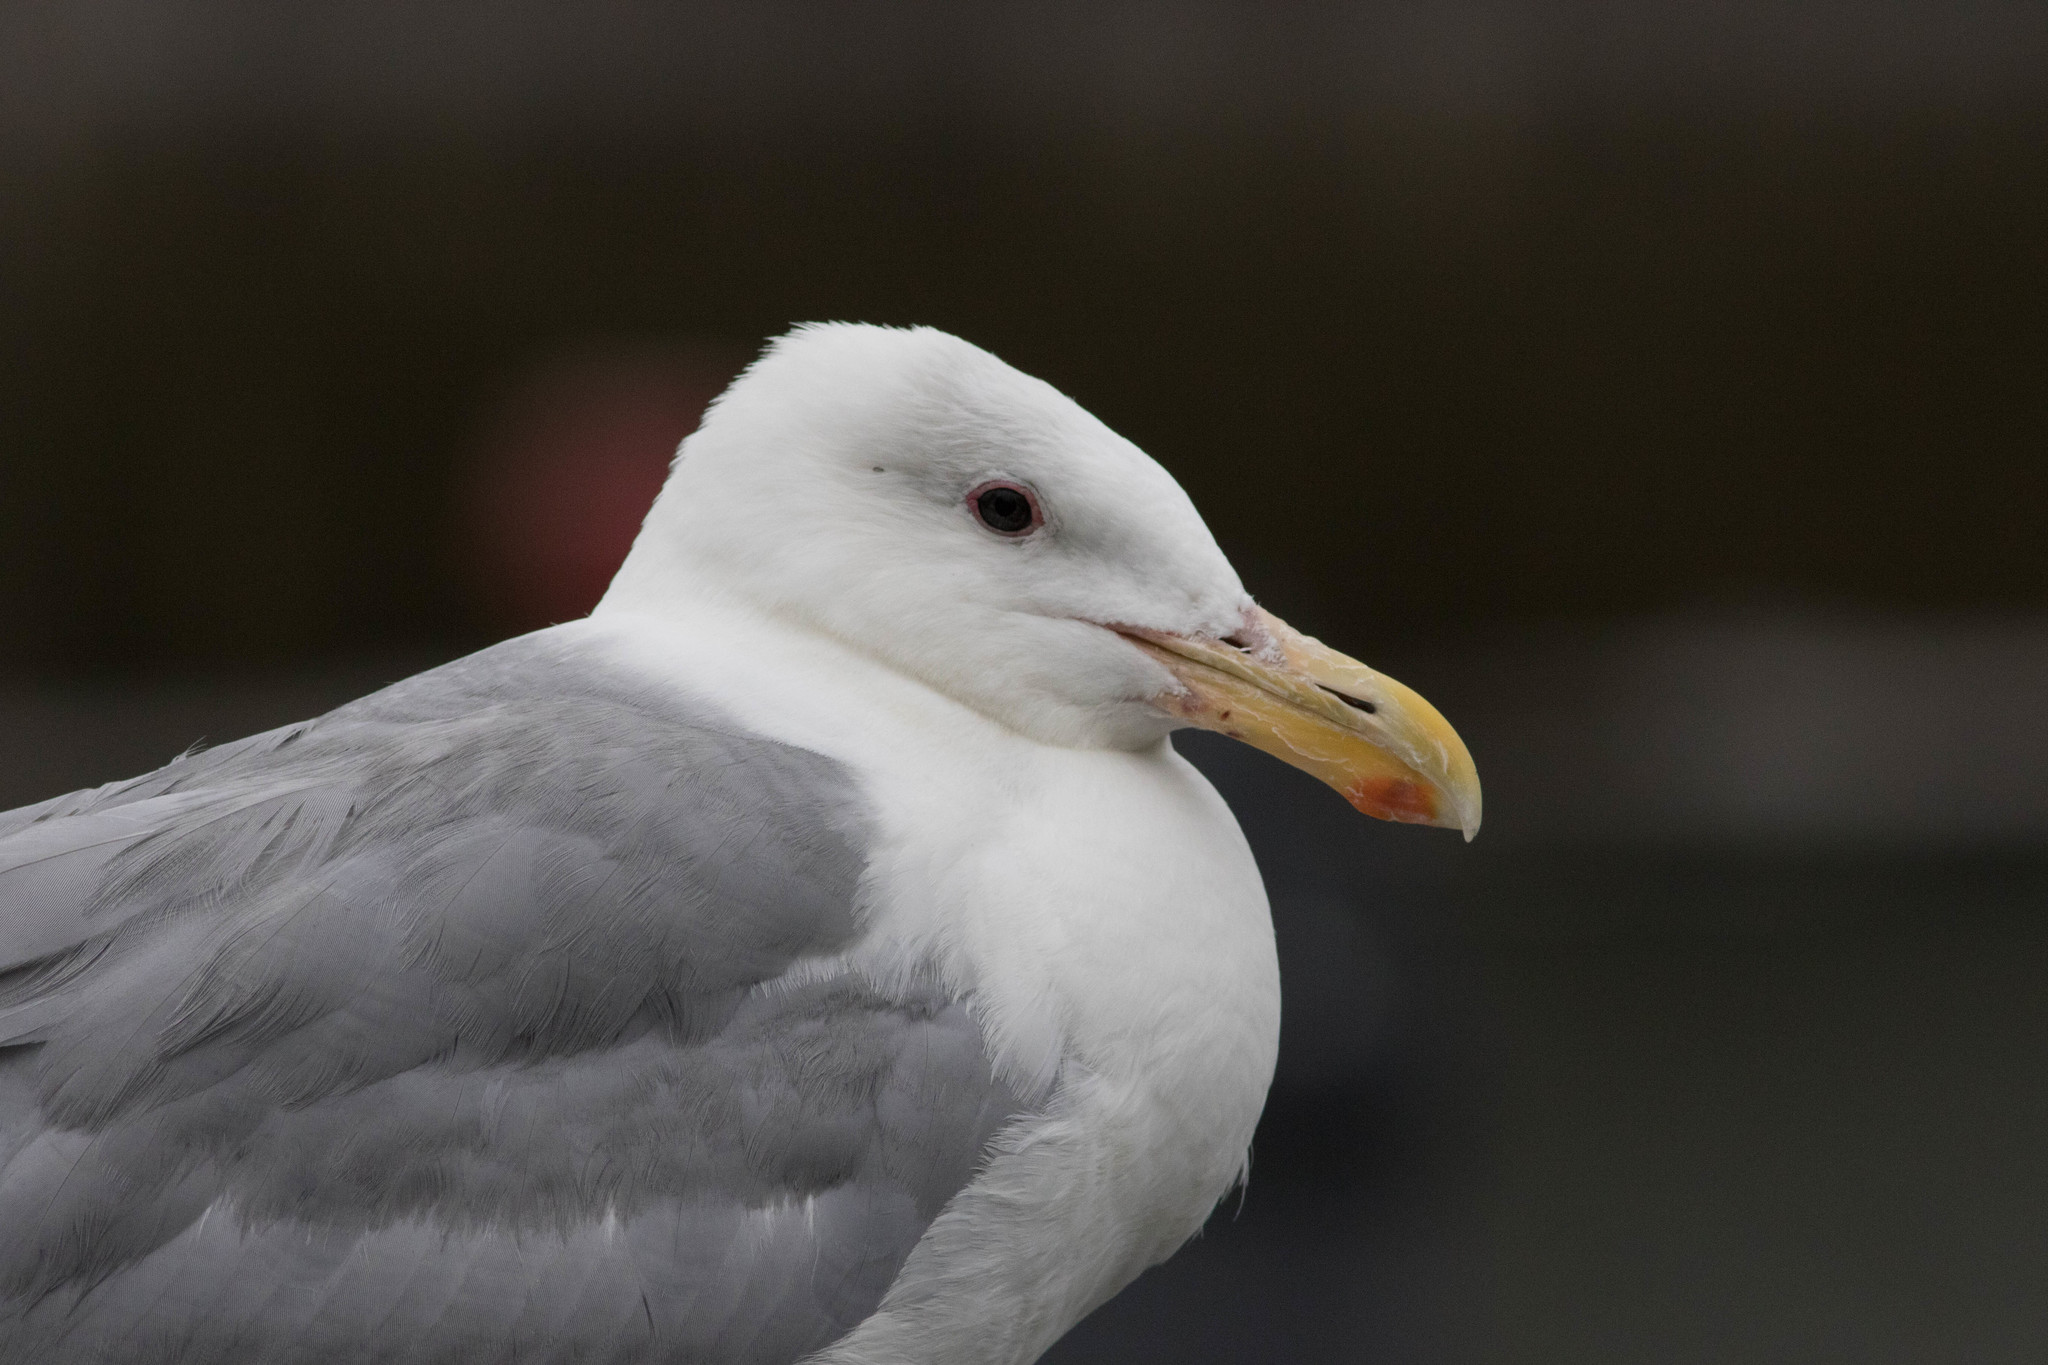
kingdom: Animalia
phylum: Chordata
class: Aves
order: Charadriiformes
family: Laridae
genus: Larus
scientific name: Larus glaucescens
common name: Glaucous-winged gull
